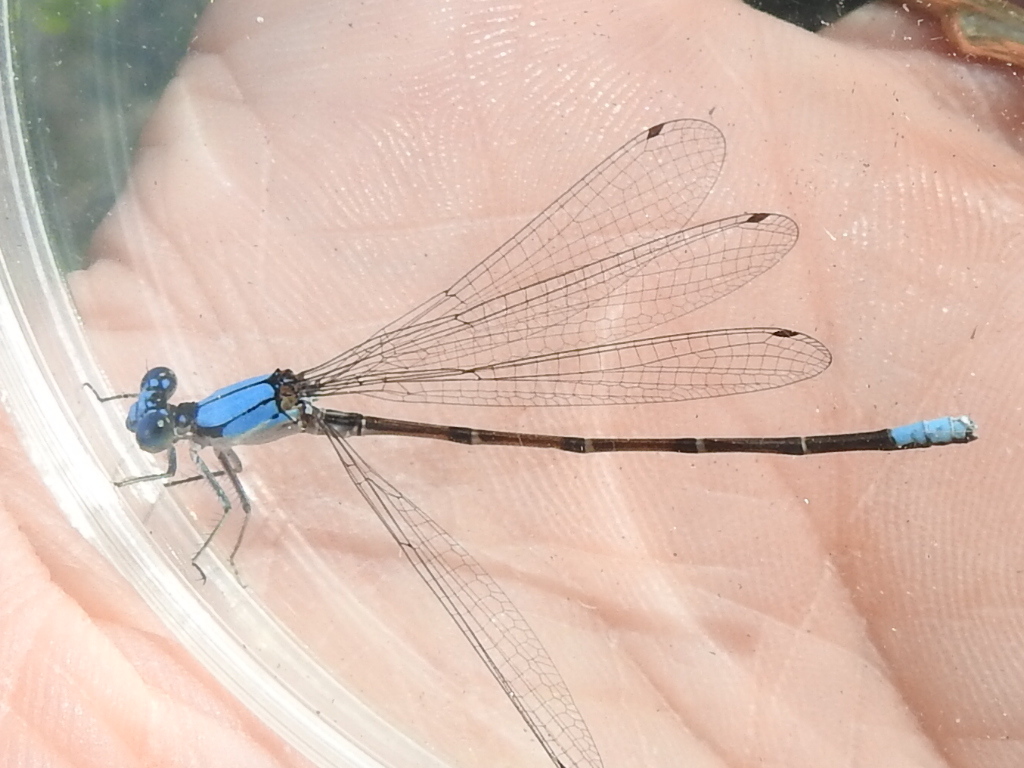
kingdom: Animalia
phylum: Arthropoda
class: Insecta
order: Odonata
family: Coenagrionidae
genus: Argia
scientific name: Argia apicalis
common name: Blue-fronted dancer
